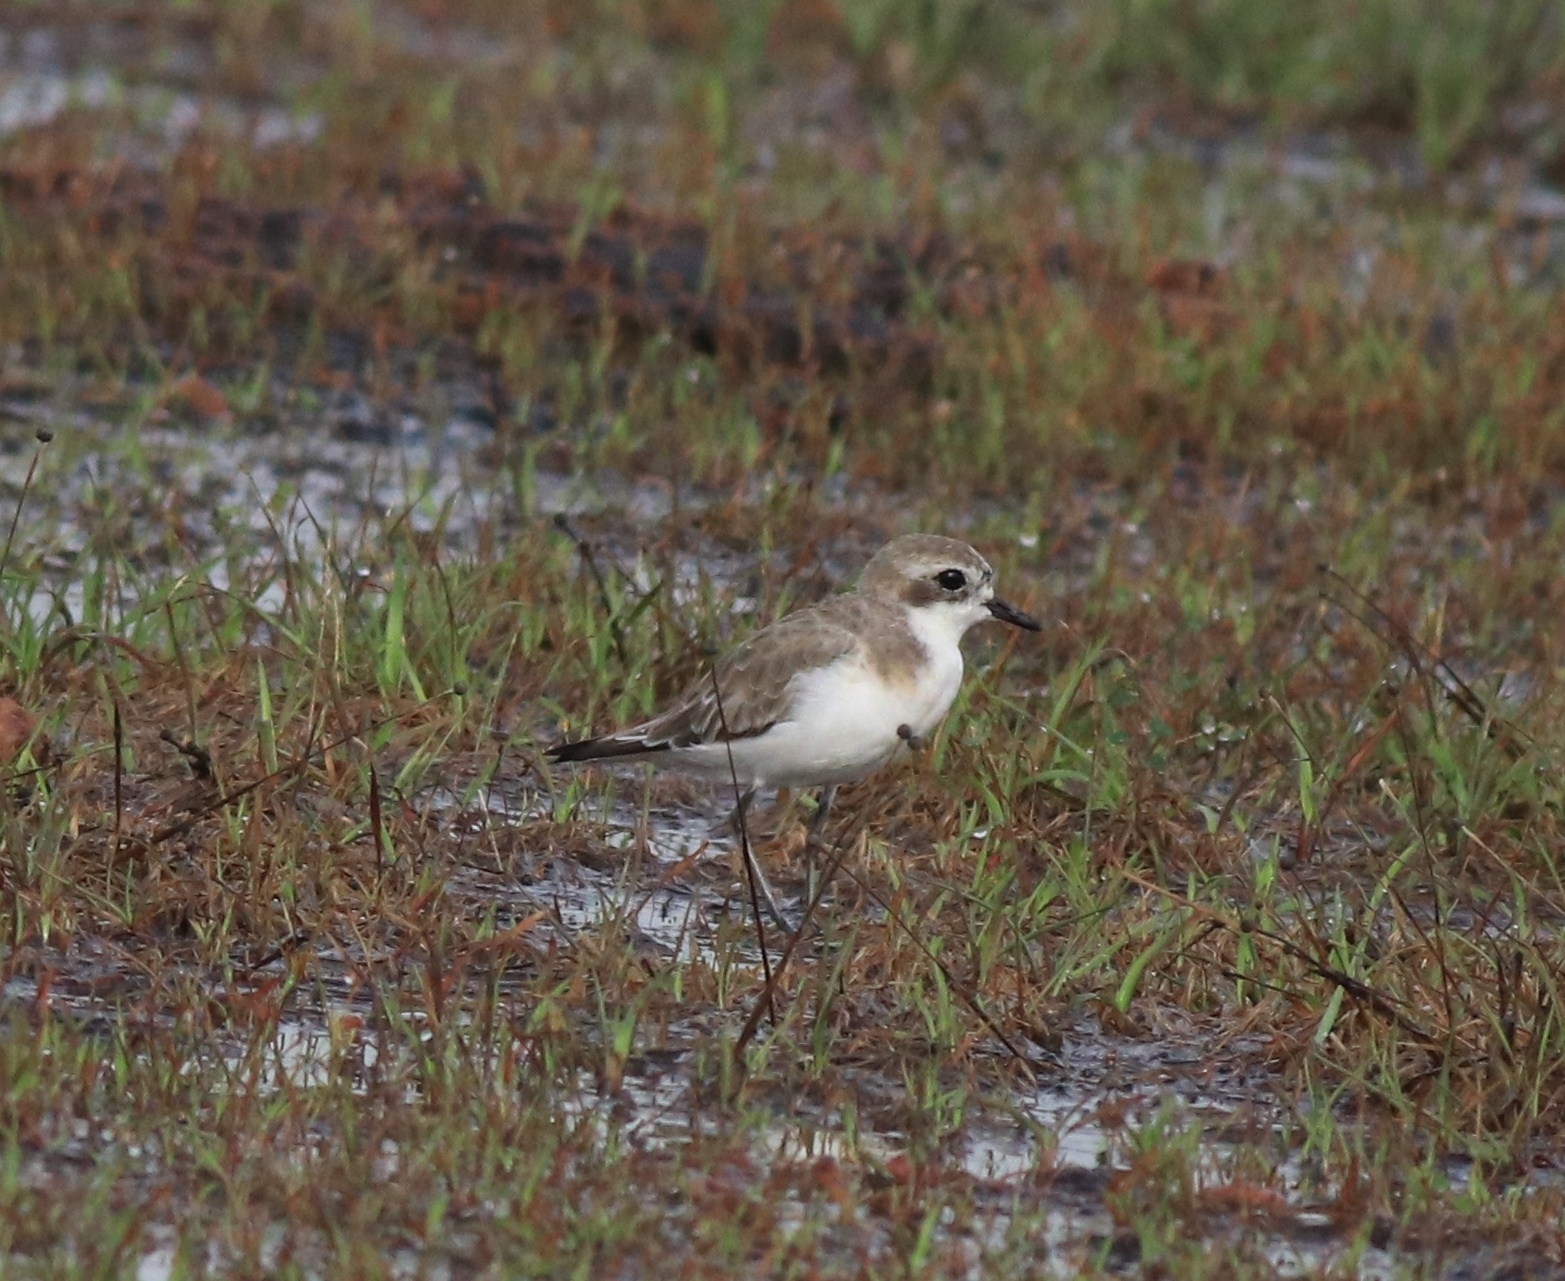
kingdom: Animalia
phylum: Chordata
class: Aves
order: Charadriiformes
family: Charadriidae
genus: Anarhynchus
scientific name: Anarhynchus
